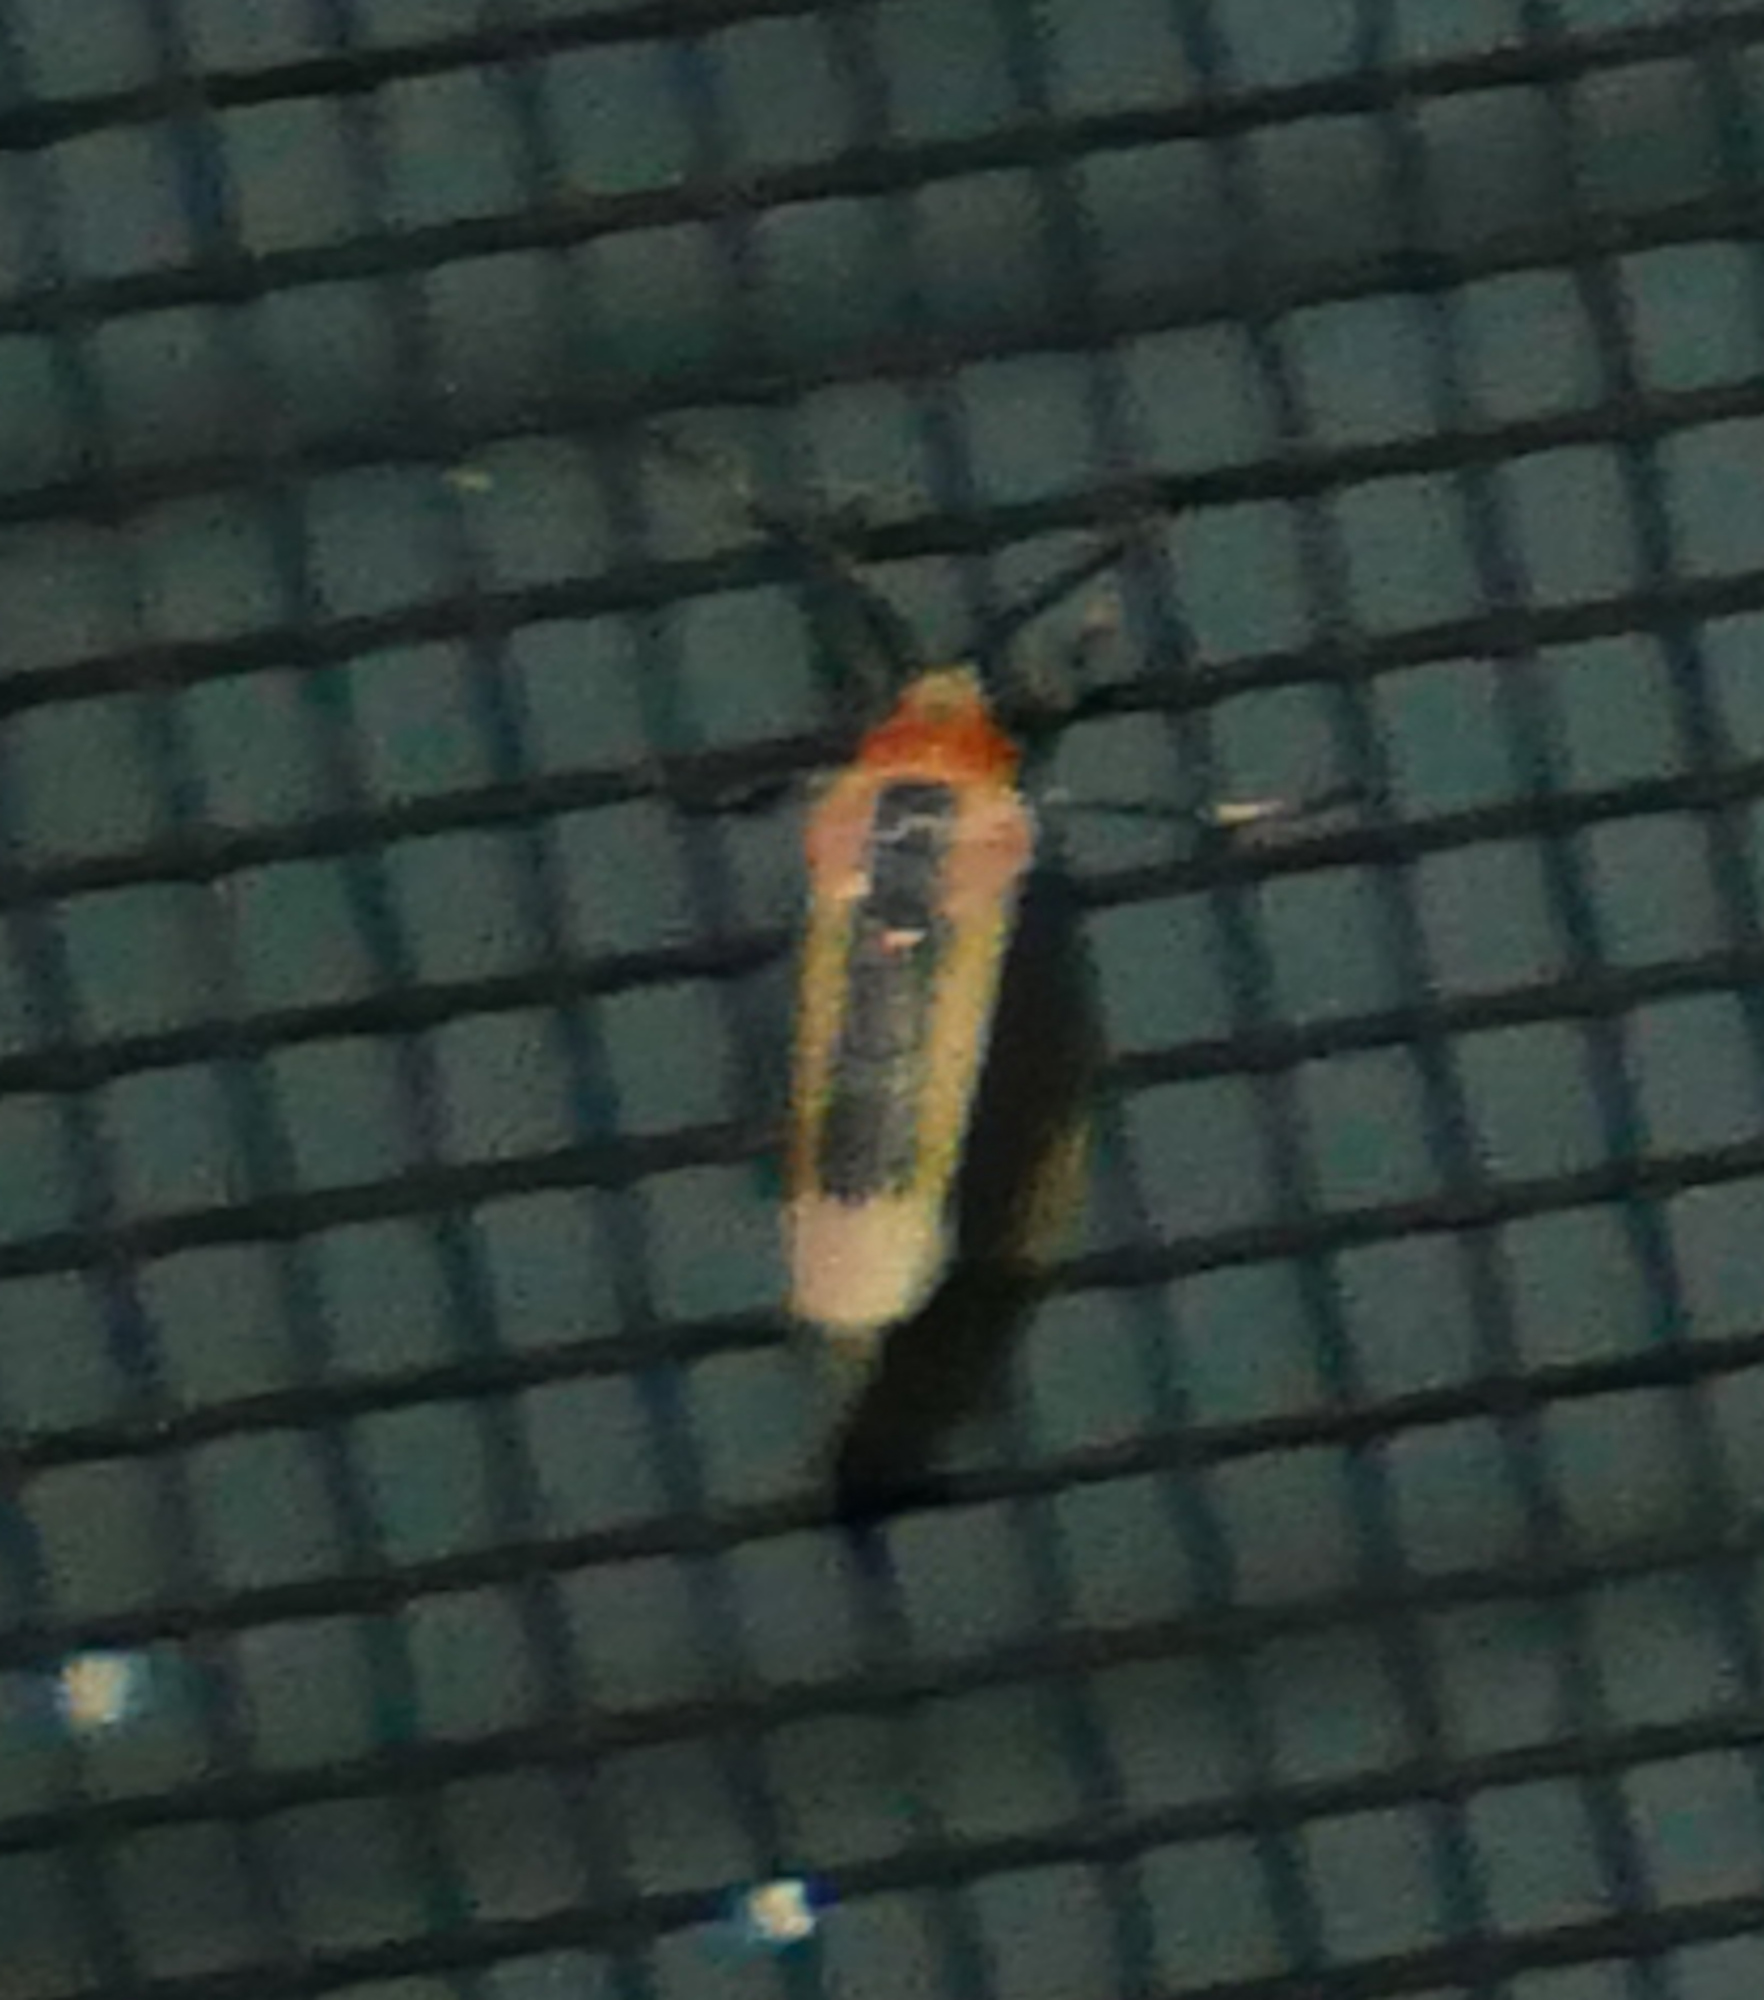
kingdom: Animalia
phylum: Arthropoda
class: Insecta
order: Lepidoptera
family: Erebidae
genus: Cisthene
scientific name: Cisthene packardii
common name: Packard's lichen moth
